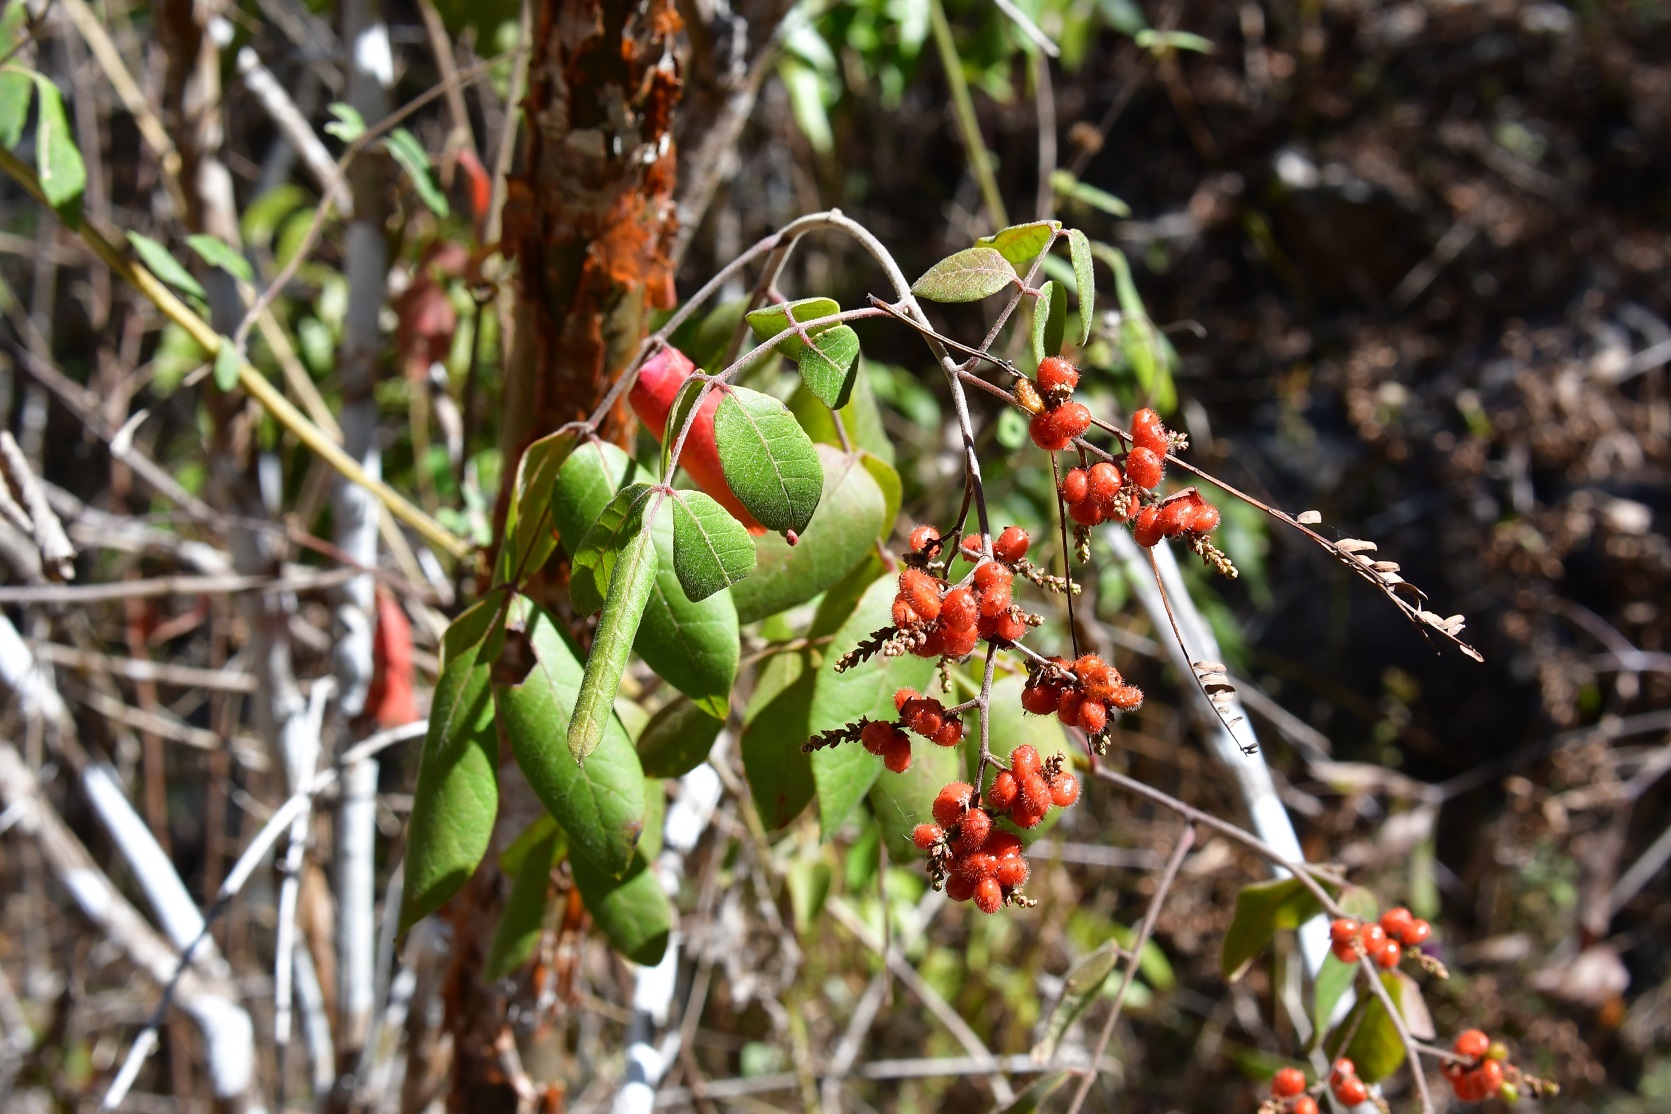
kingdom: Plantae
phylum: Tracheophyta
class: Magnoliopsida
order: Sapindales
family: Anacardiaceae
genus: Rhus
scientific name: Rhus terebinthifolia
